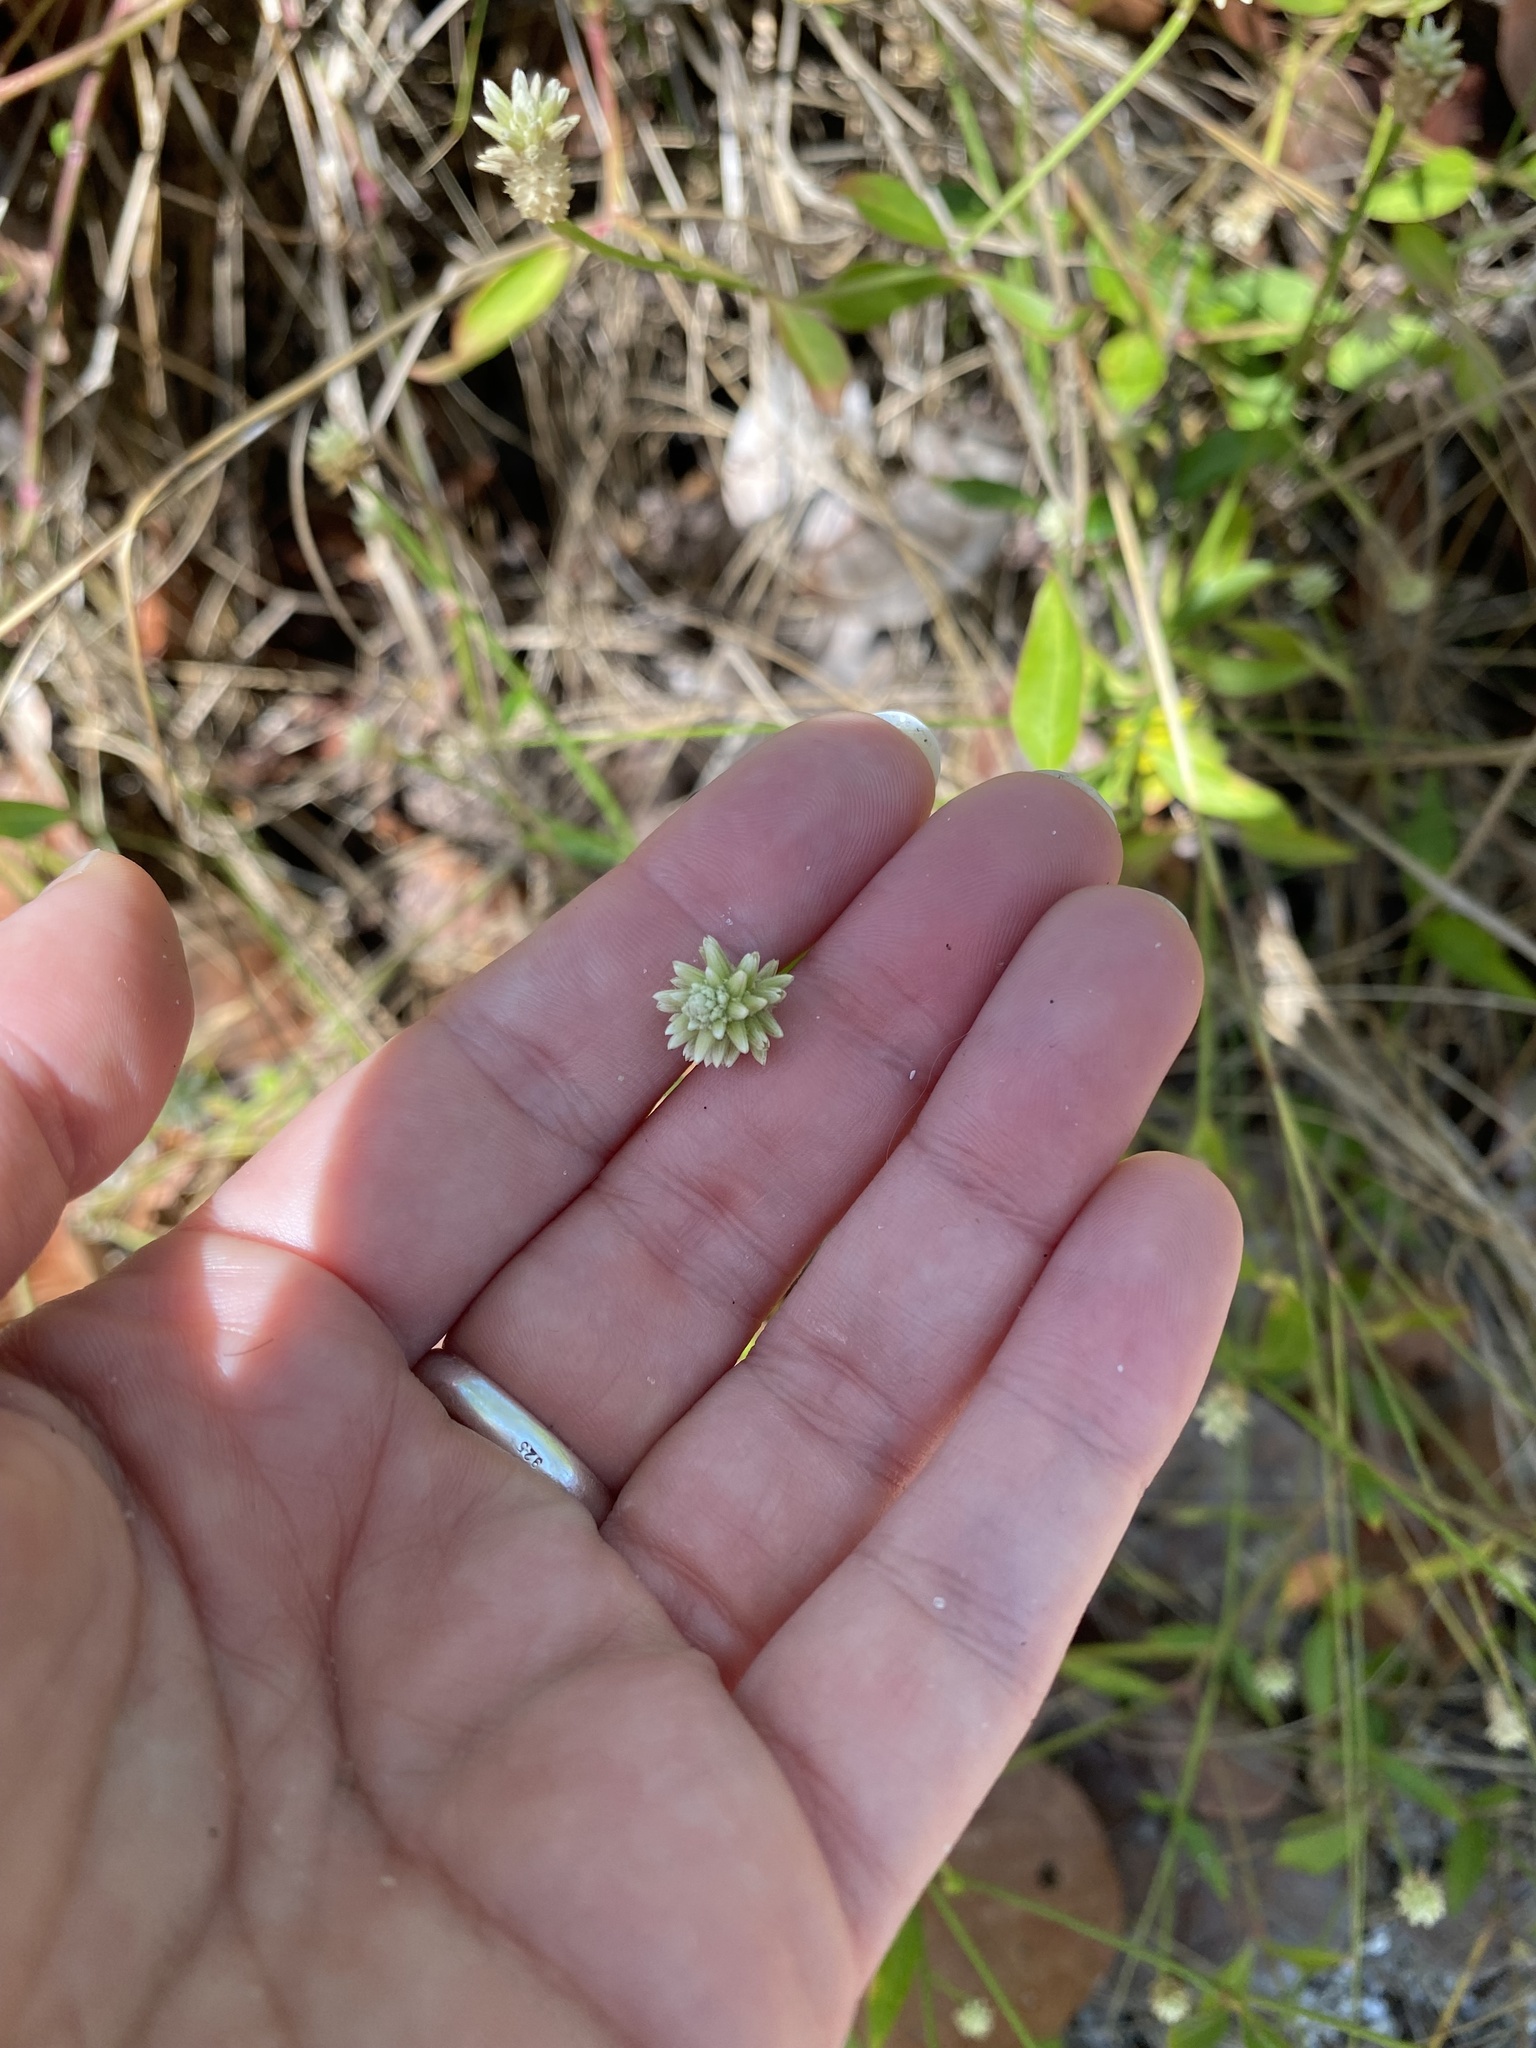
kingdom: Plantae
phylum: Tracheophyta
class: Magnoliopsida
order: Caryophyllales
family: Amaranthaceae
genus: Alternanthera
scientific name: Alternanthera flavescens
